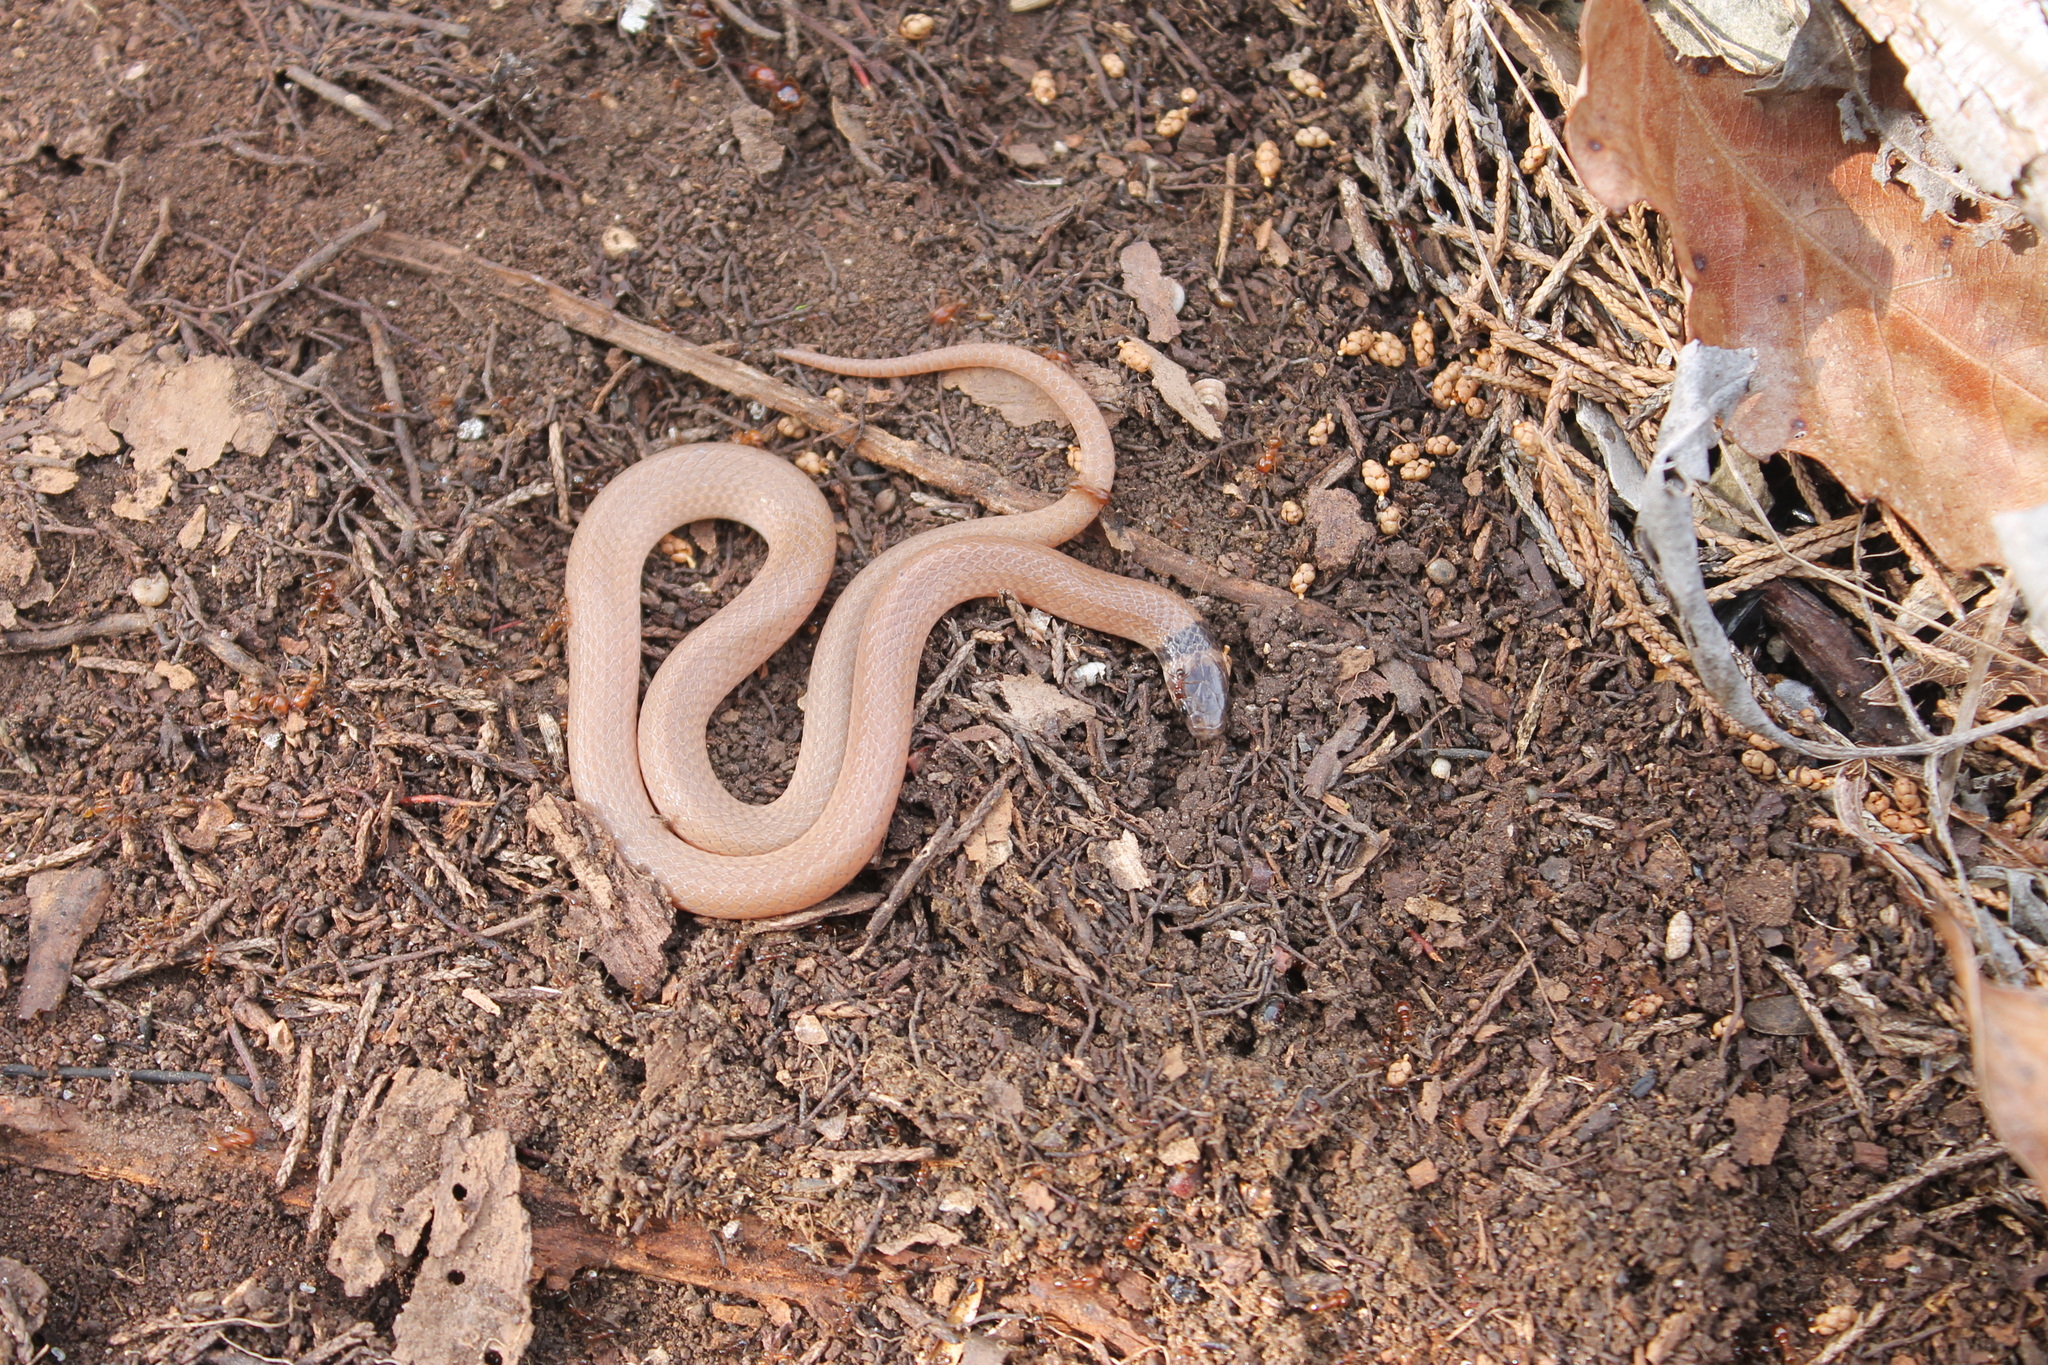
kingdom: Animalia
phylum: Chordata
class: Squamata
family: Colubridae
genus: Tantilla
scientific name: Tantilla coronata
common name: Southeastern crowned snake
